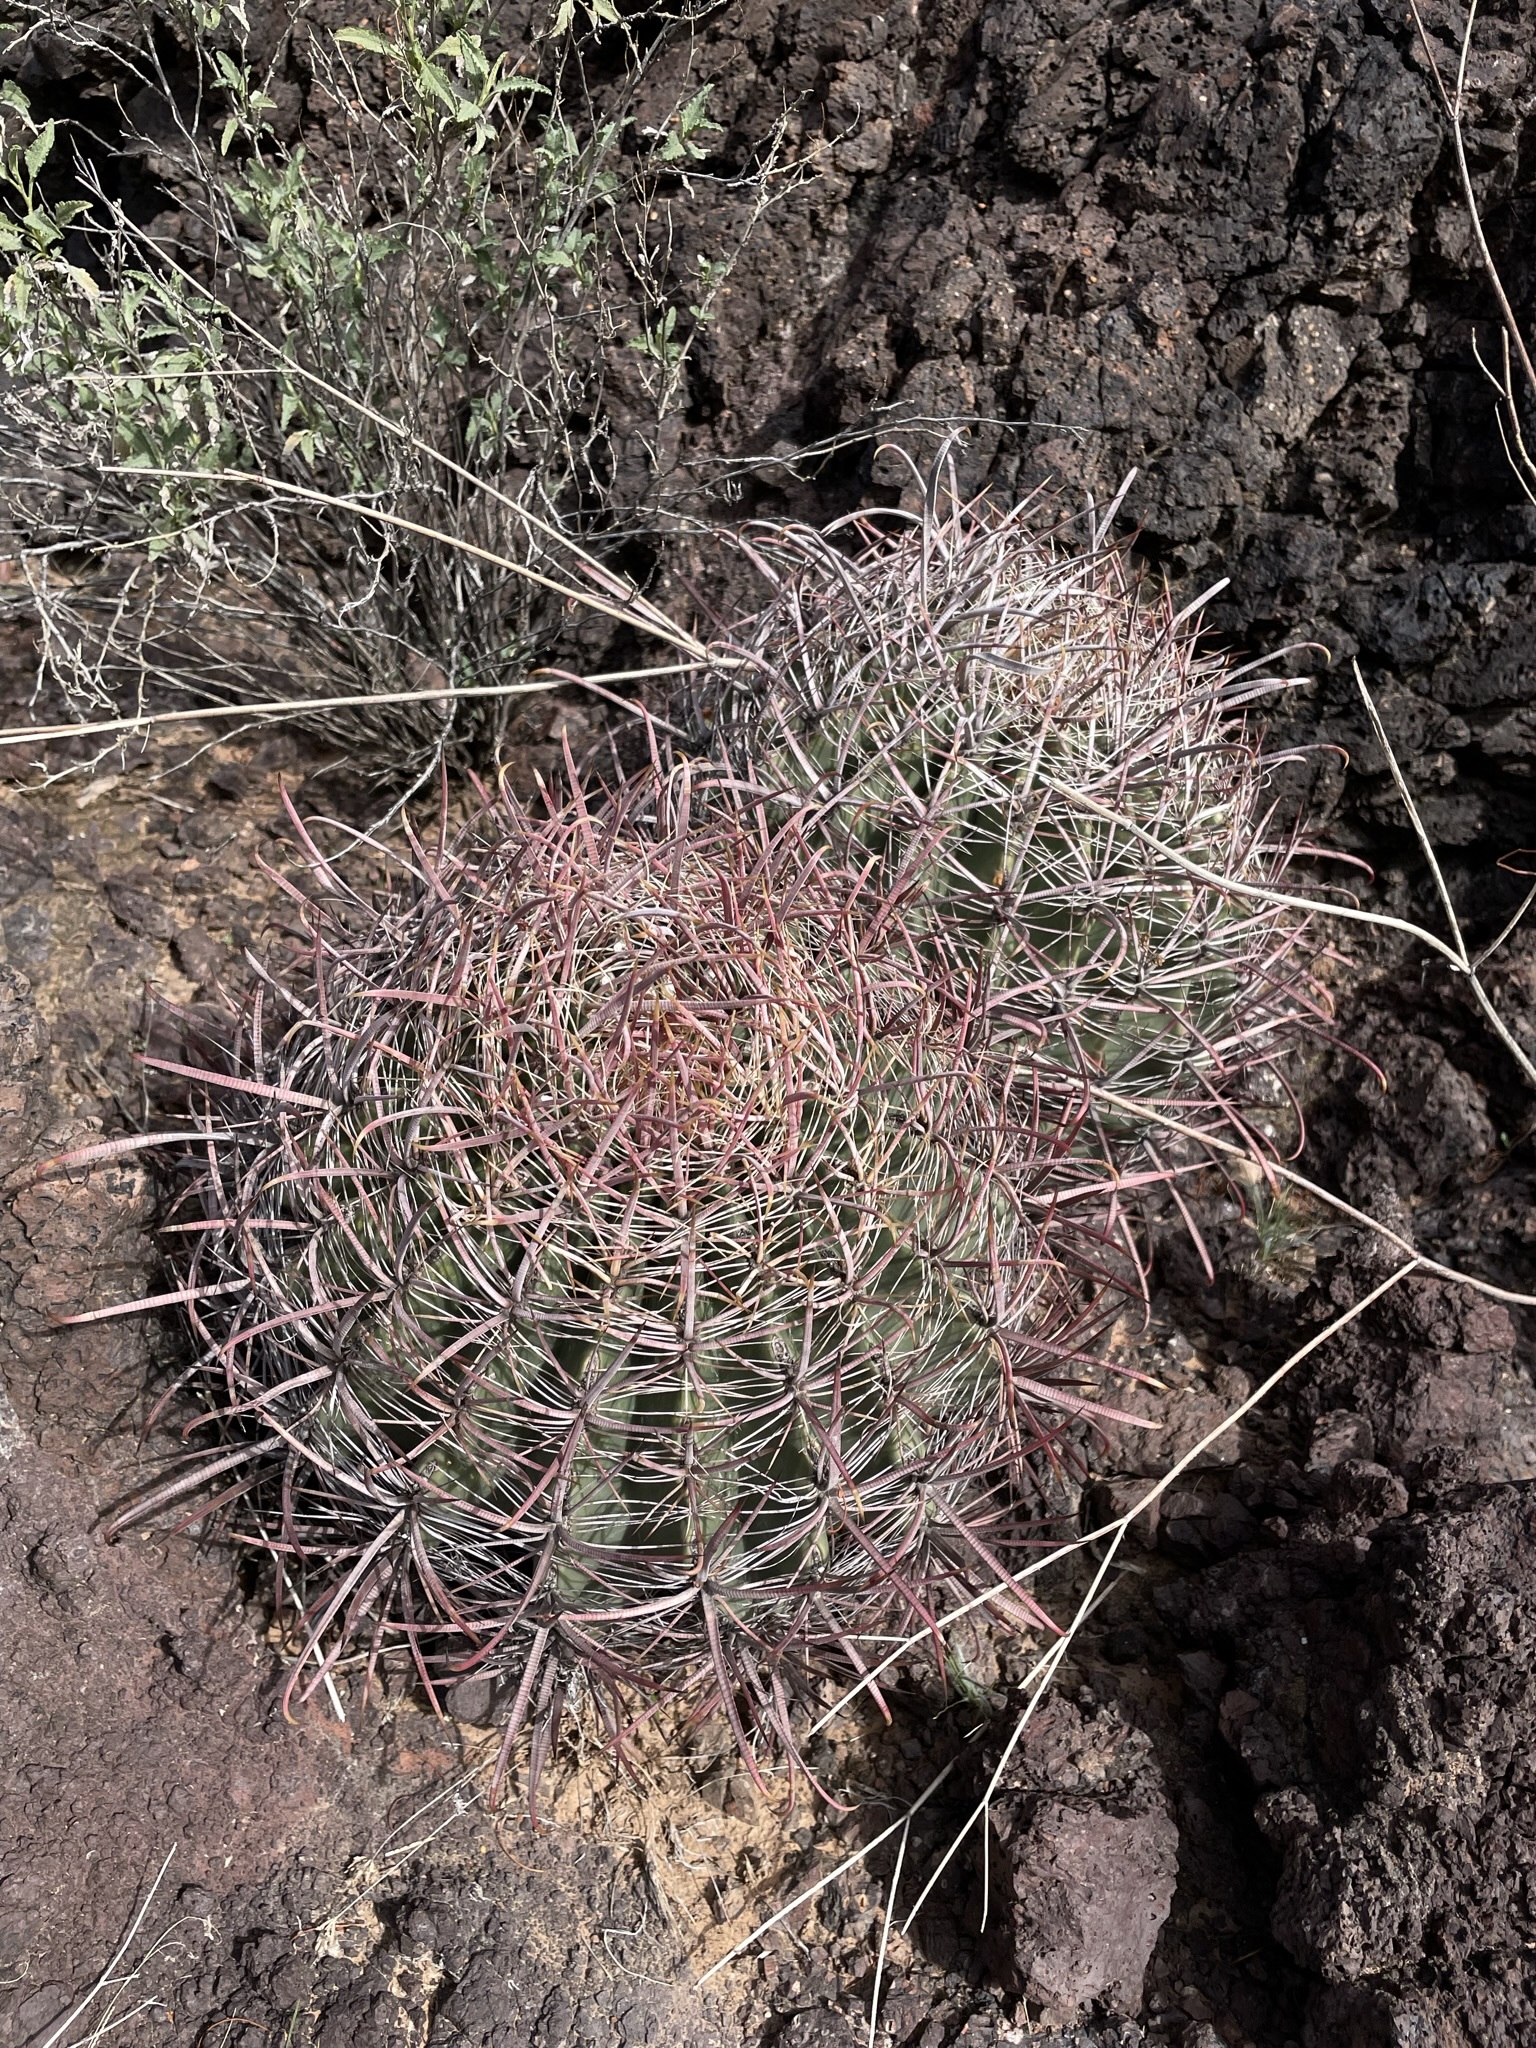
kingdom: Plantae
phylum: Tracheophyta
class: Magnoliopsida
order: Caryophyllales
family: Cactaceae
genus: Ferocactus
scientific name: Ferocactus cylindraceus
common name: California barrel cactus
